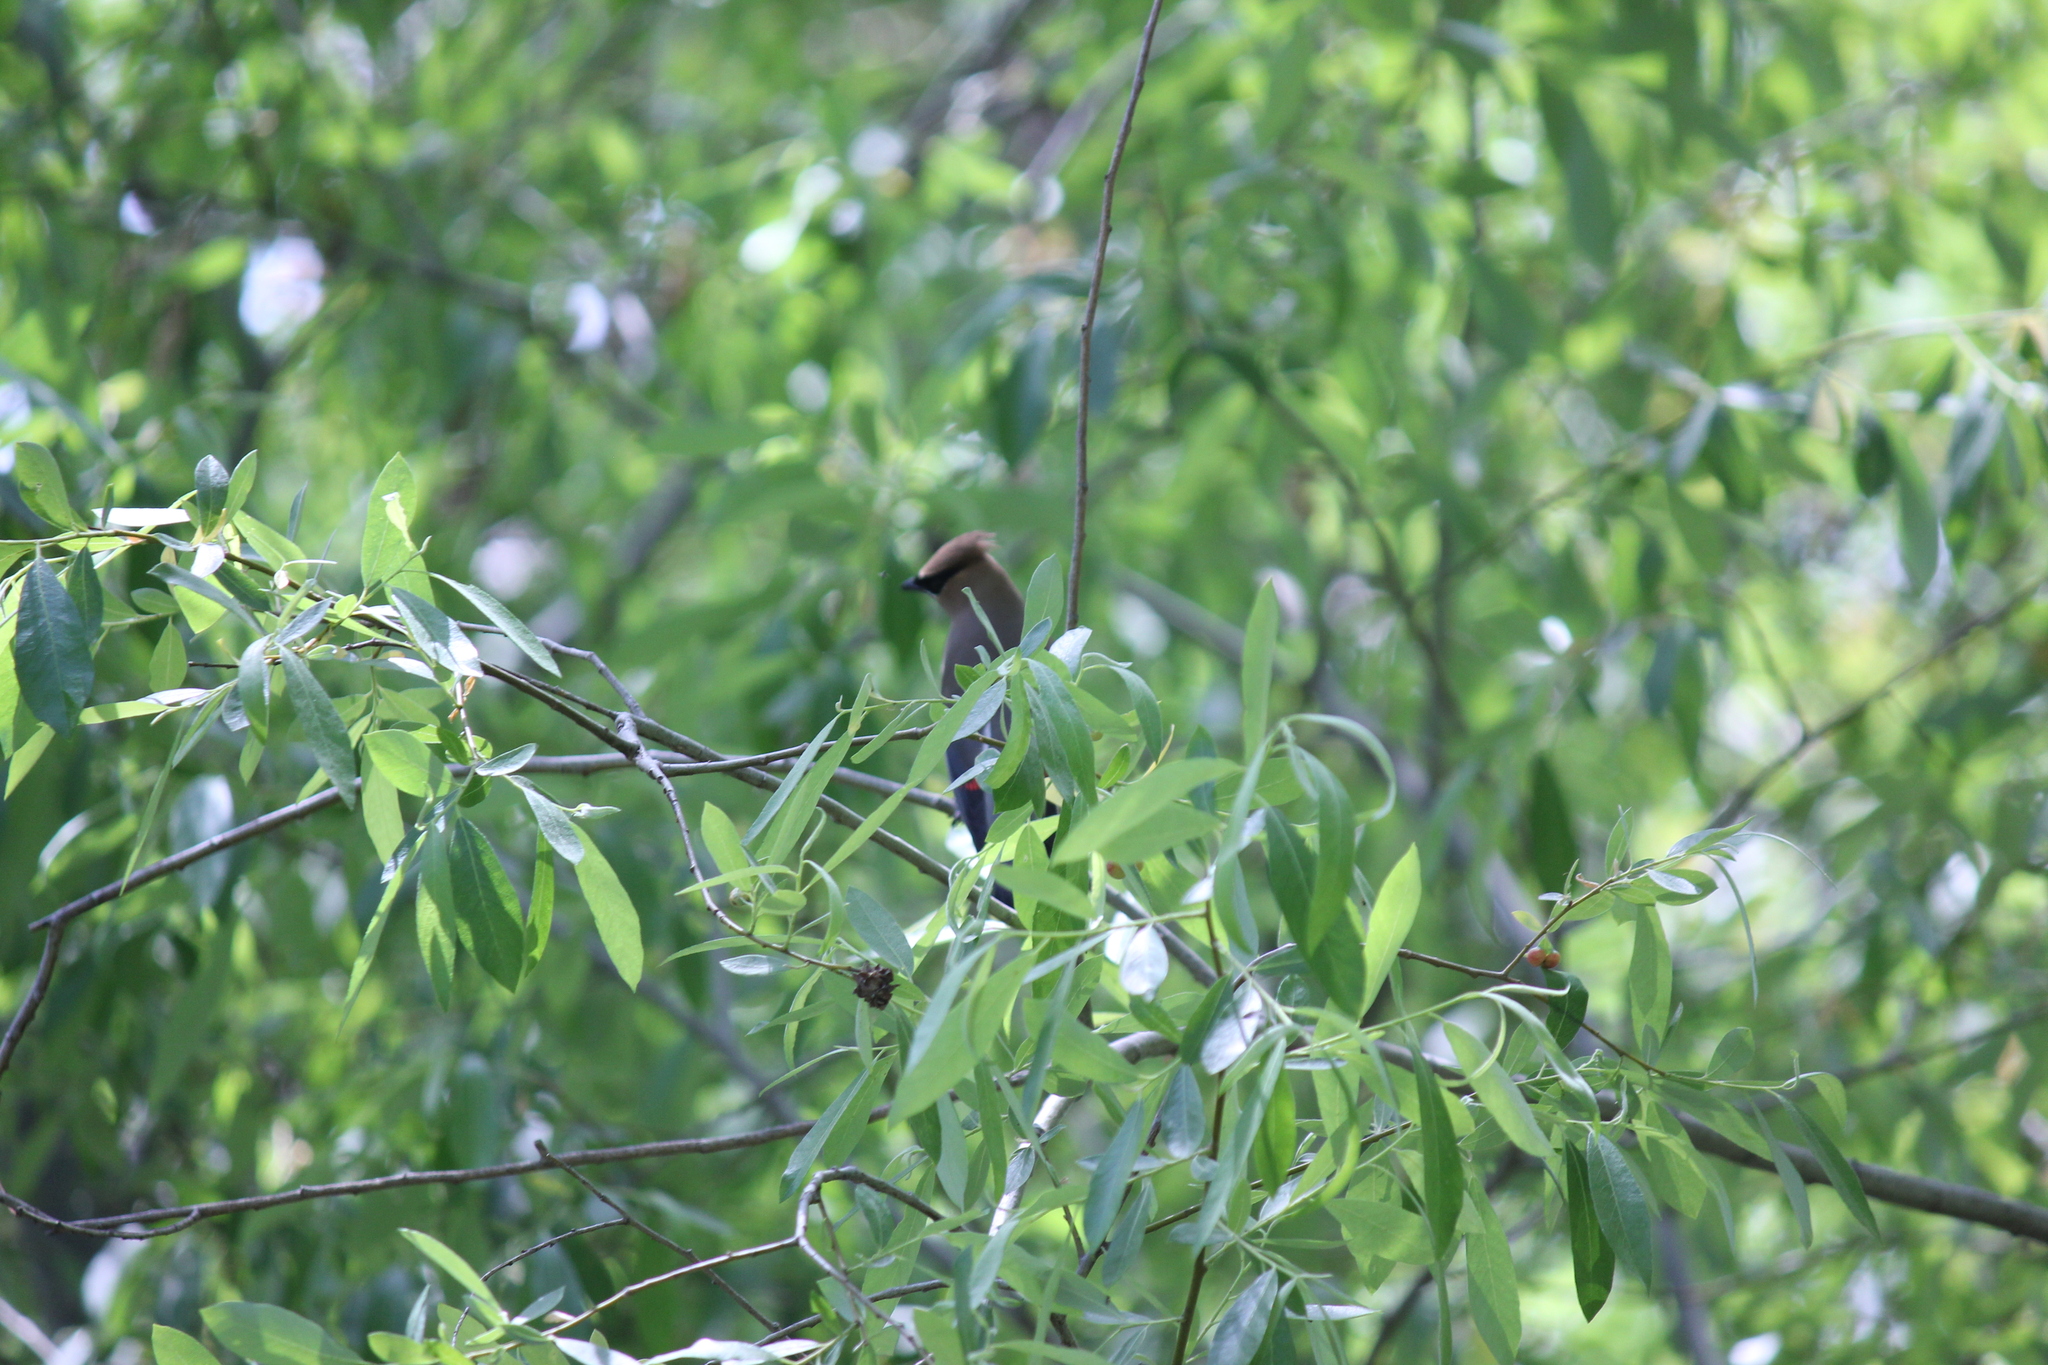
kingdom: Animalia
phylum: Chordata
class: Aves
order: Passeriformes
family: Bombycillidae
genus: Bombycilla
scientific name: Bombycilla cedrorum
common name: Cedar waxwing
